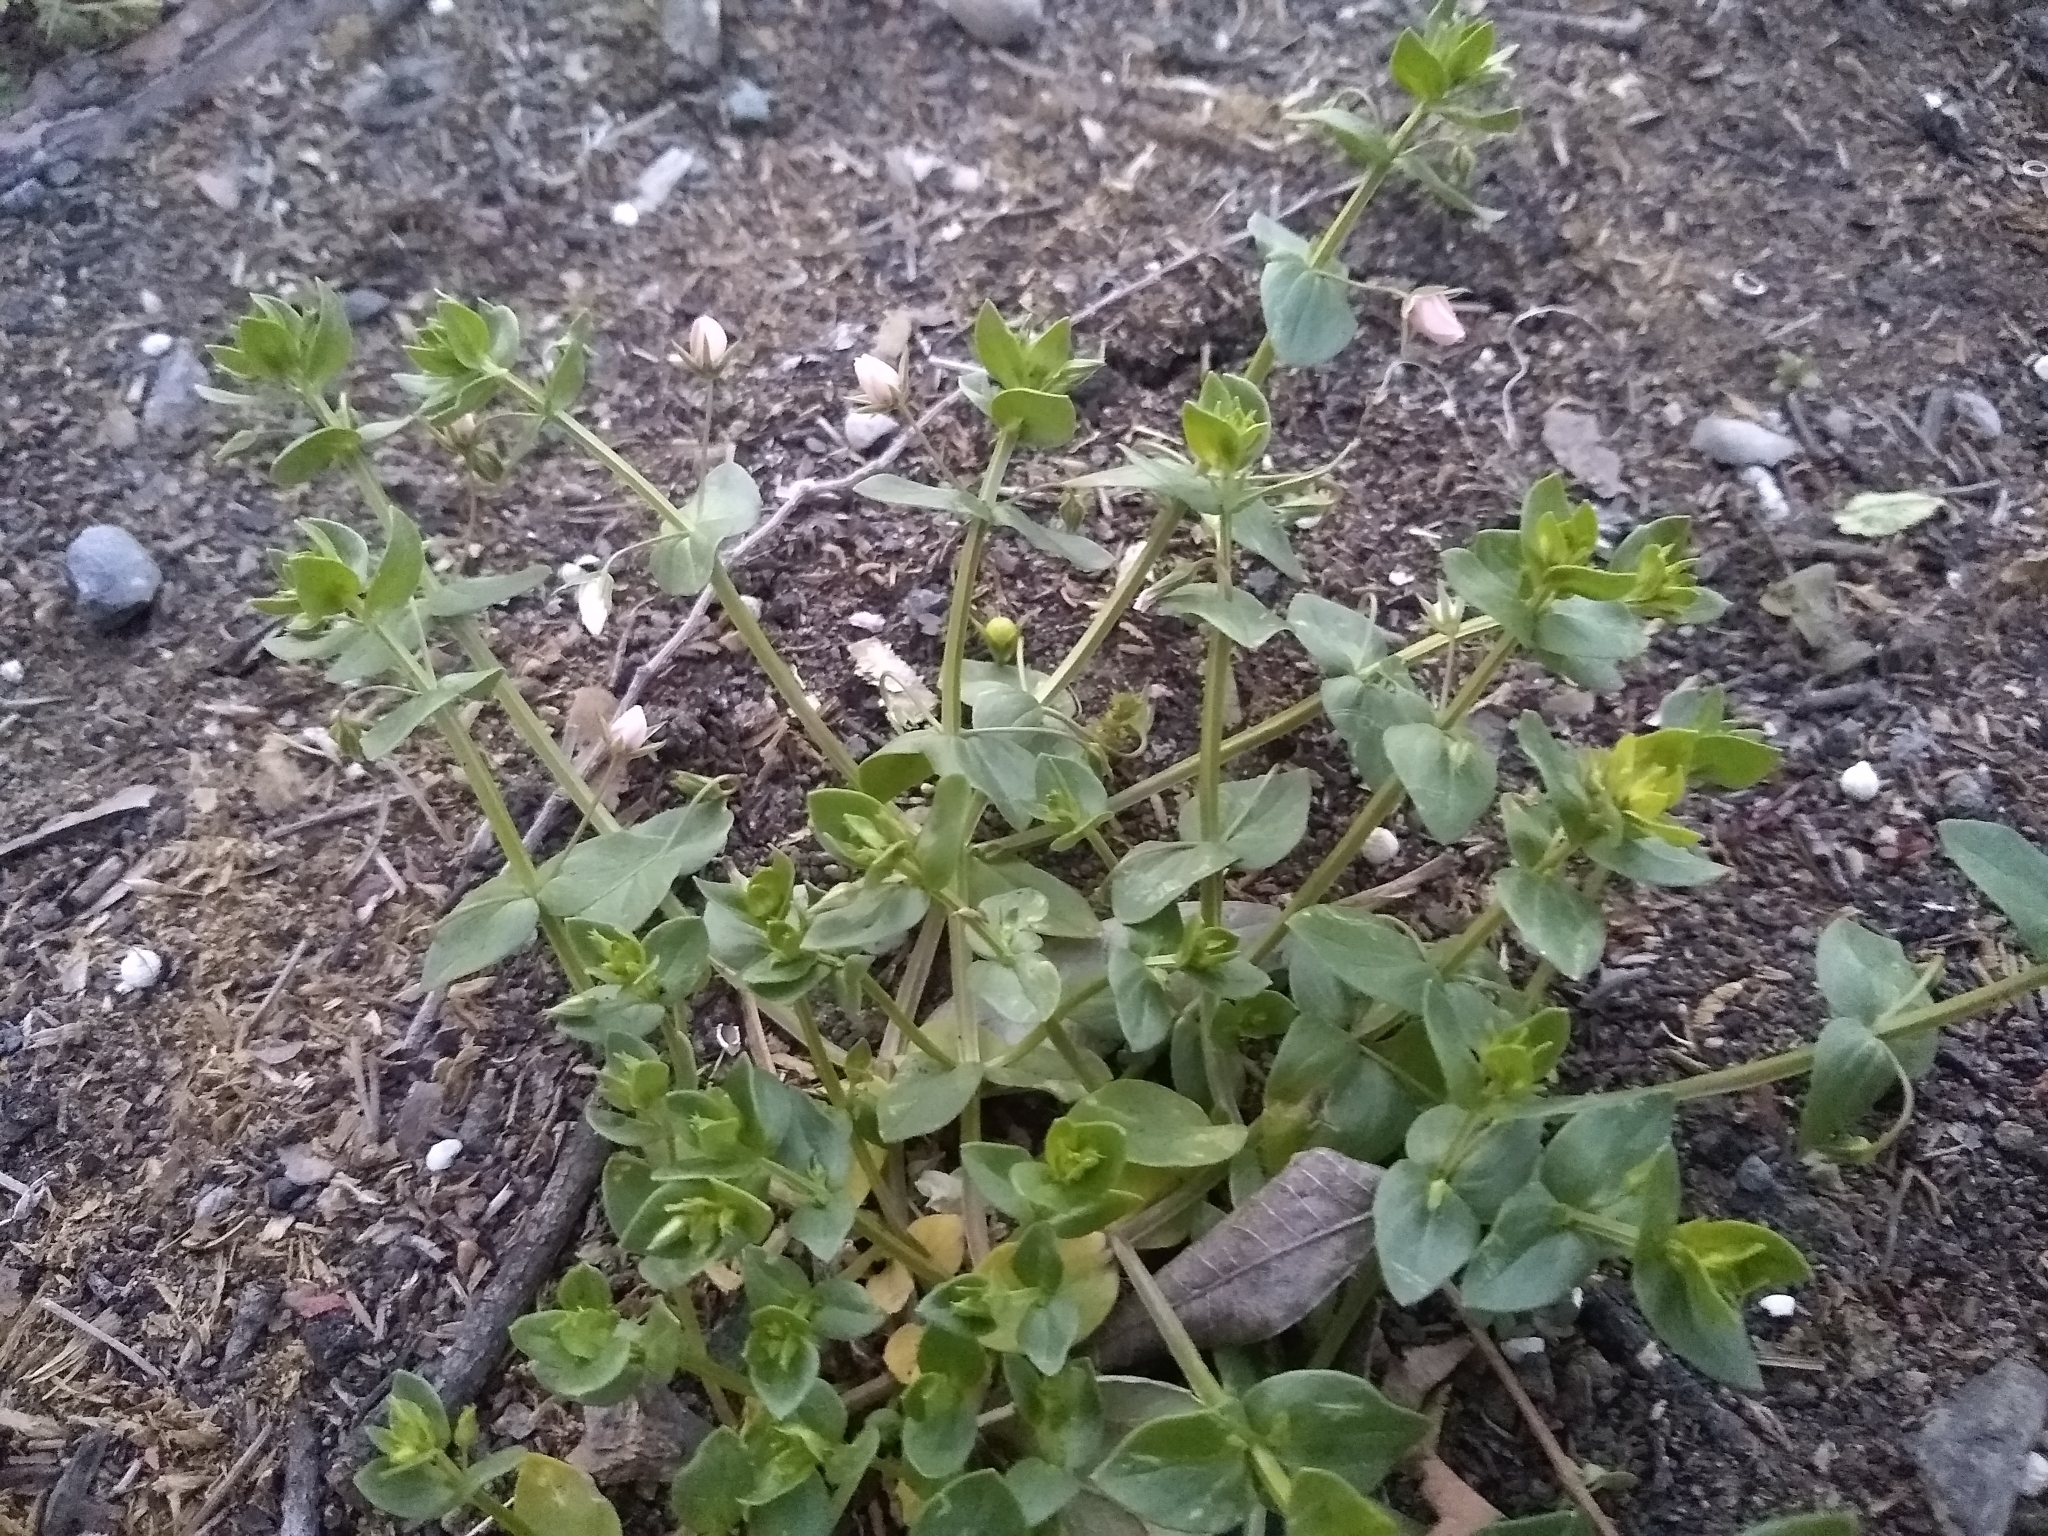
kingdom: Plantae
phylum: Tracheophyta
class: Magnoliopsida
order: Ericales
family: Primulaceae
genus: Lysimachia
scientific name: Lysimachia arvensis
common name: Scarlet pimpernel
